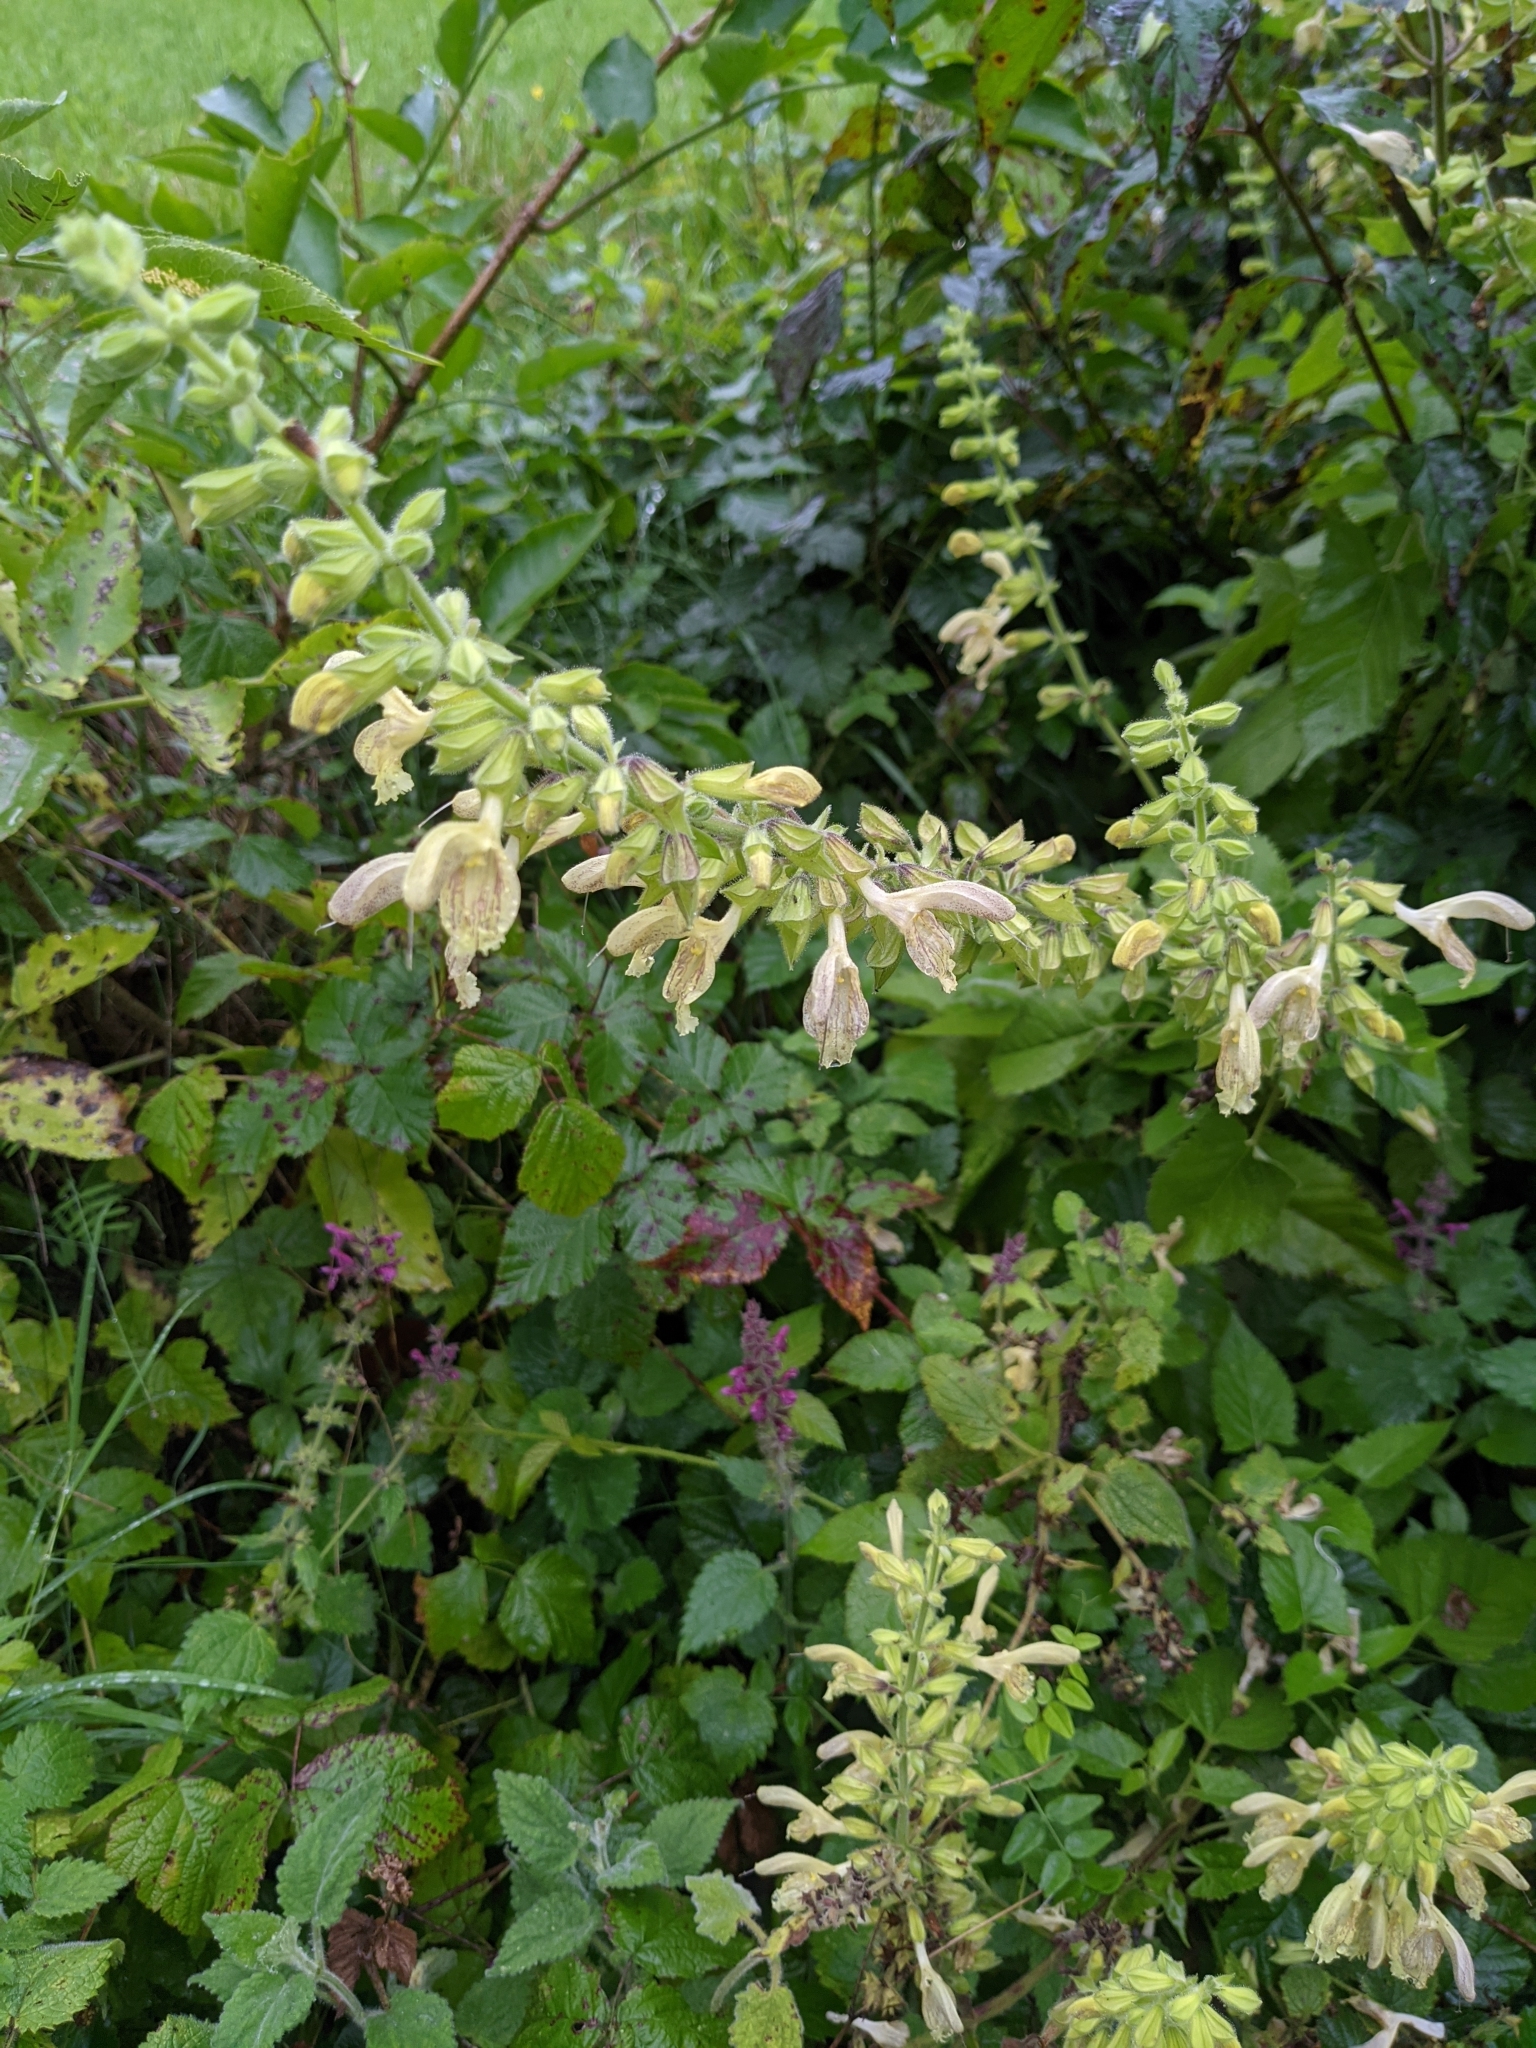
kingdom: Plantae
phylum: Tracheophyta
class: Magnoliopsida
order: Lamiales
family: Lamiaceae
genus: Salvia
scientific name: Salvia glutinosa
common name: Sticky clary
